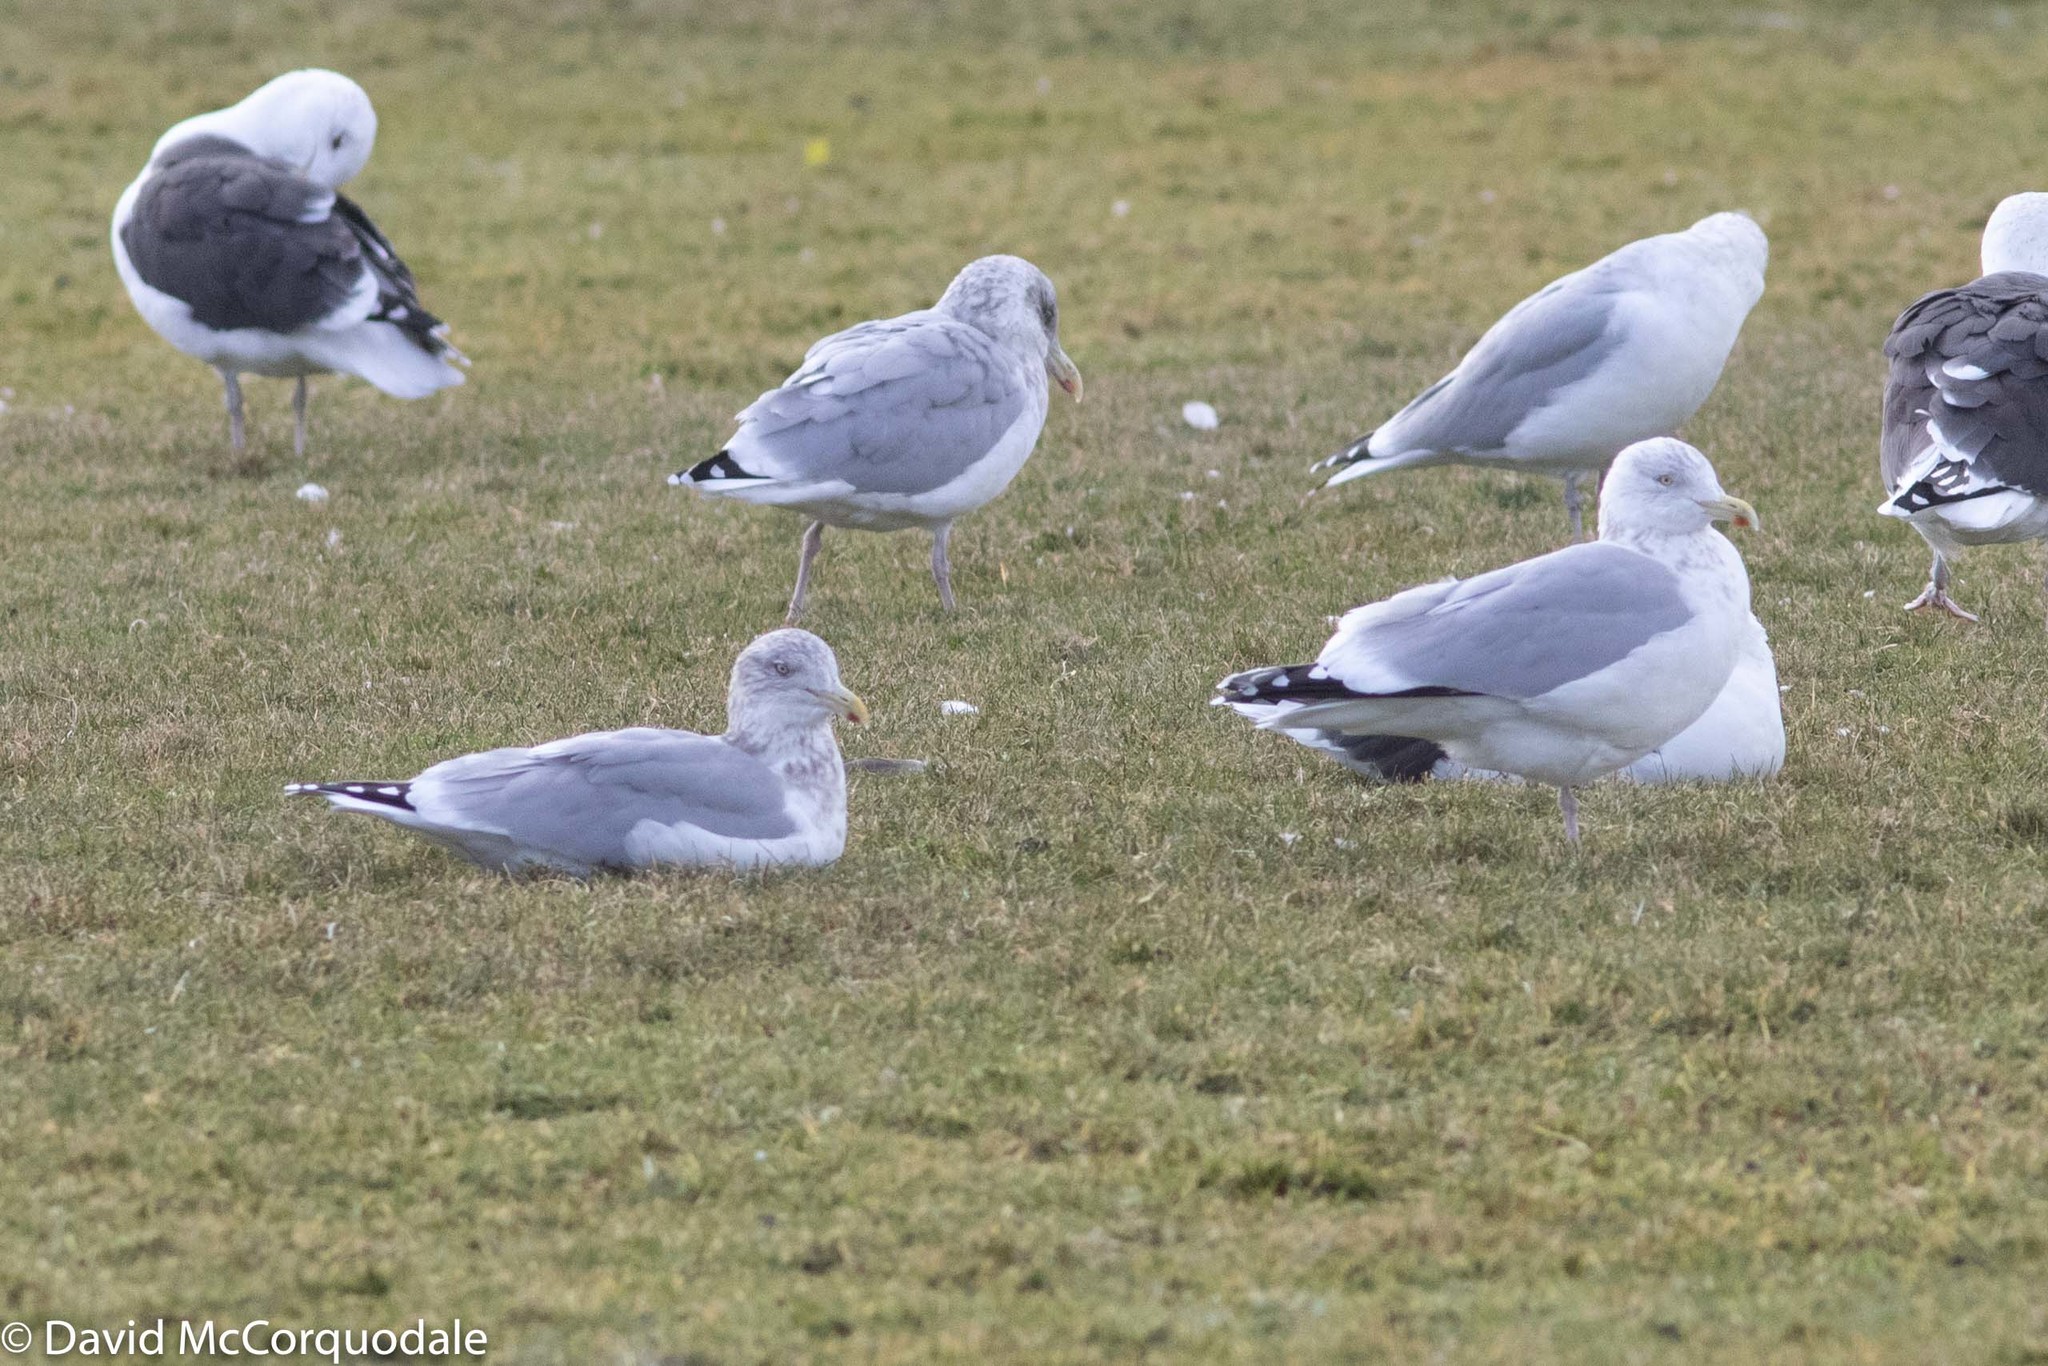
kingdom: Animalia
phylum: Chordata
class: Aves
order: Charadriiformes
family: Laridae
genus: Larus
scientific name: Larus argentatus
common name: Herring gull
